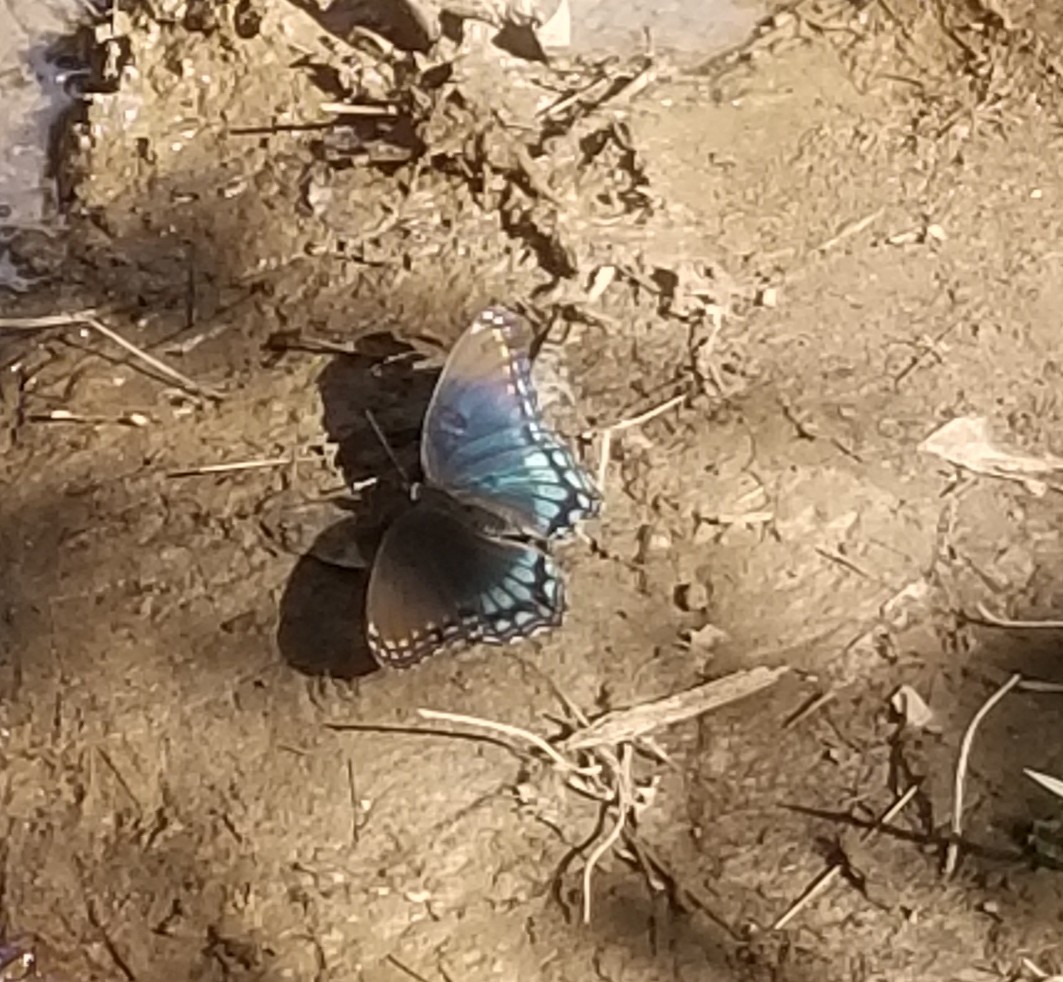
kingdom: Animalia
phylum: Arthropoda
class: Insecta
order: Lepidoptera
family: Nymphalidae
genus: Limenitis
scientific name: Limenitis astyanax
